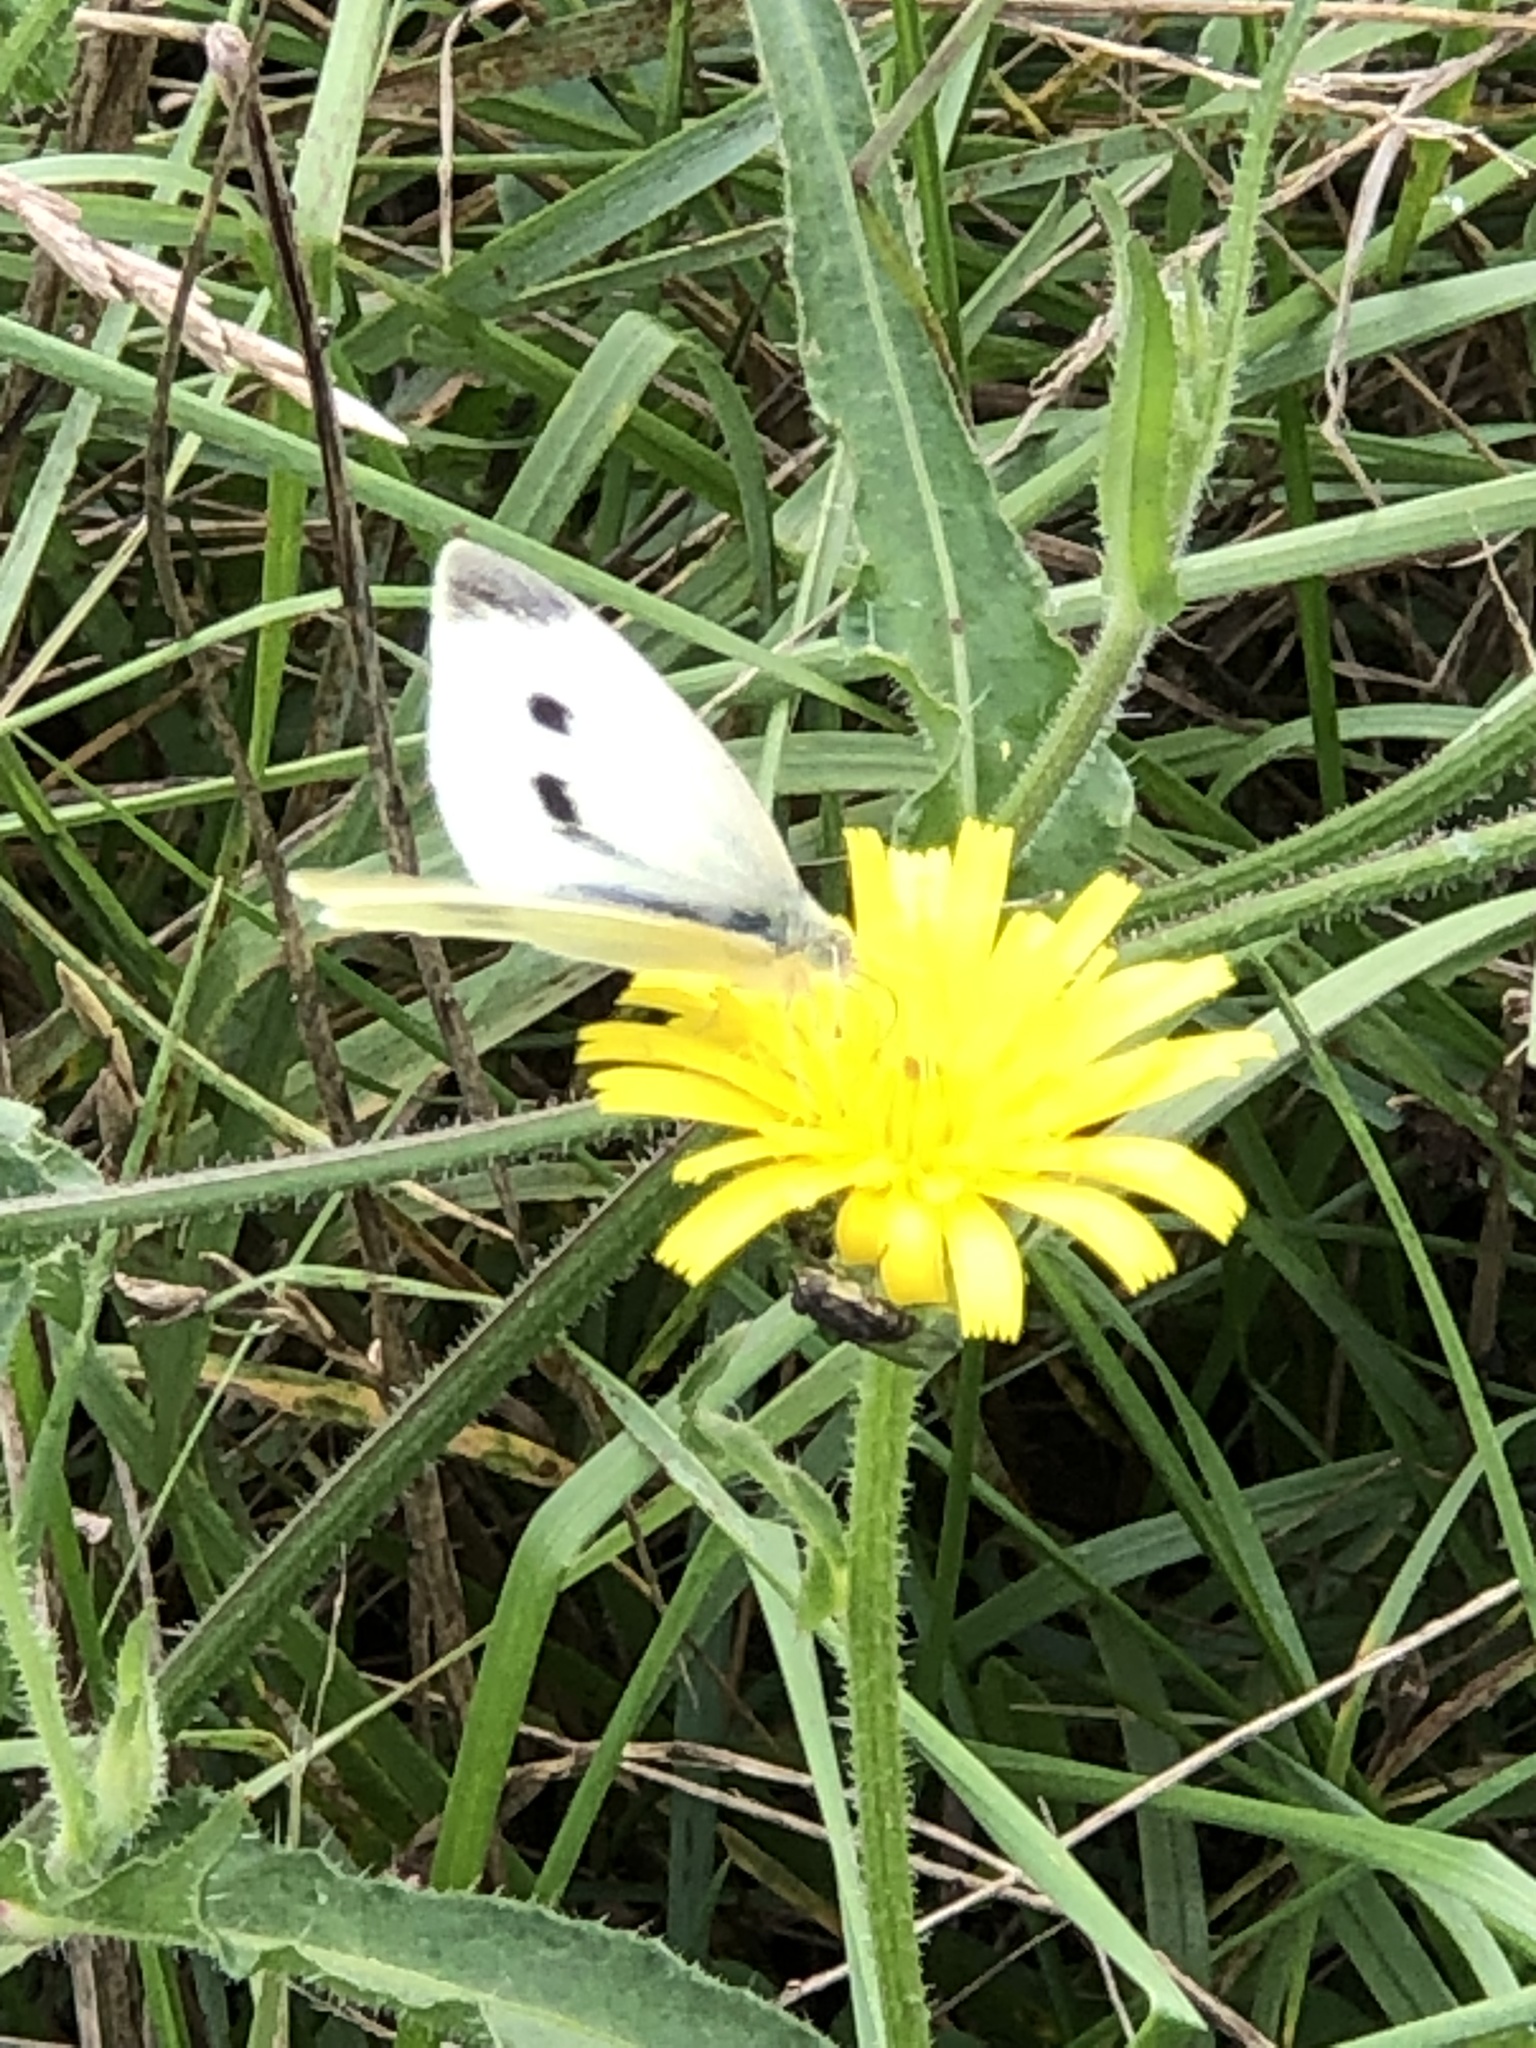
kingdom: Animalia
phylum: Arthropoda
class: Insecta
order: Lepidoptera
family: Pieridae
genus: Pieris
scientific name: Pieris rapae
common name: Small white
